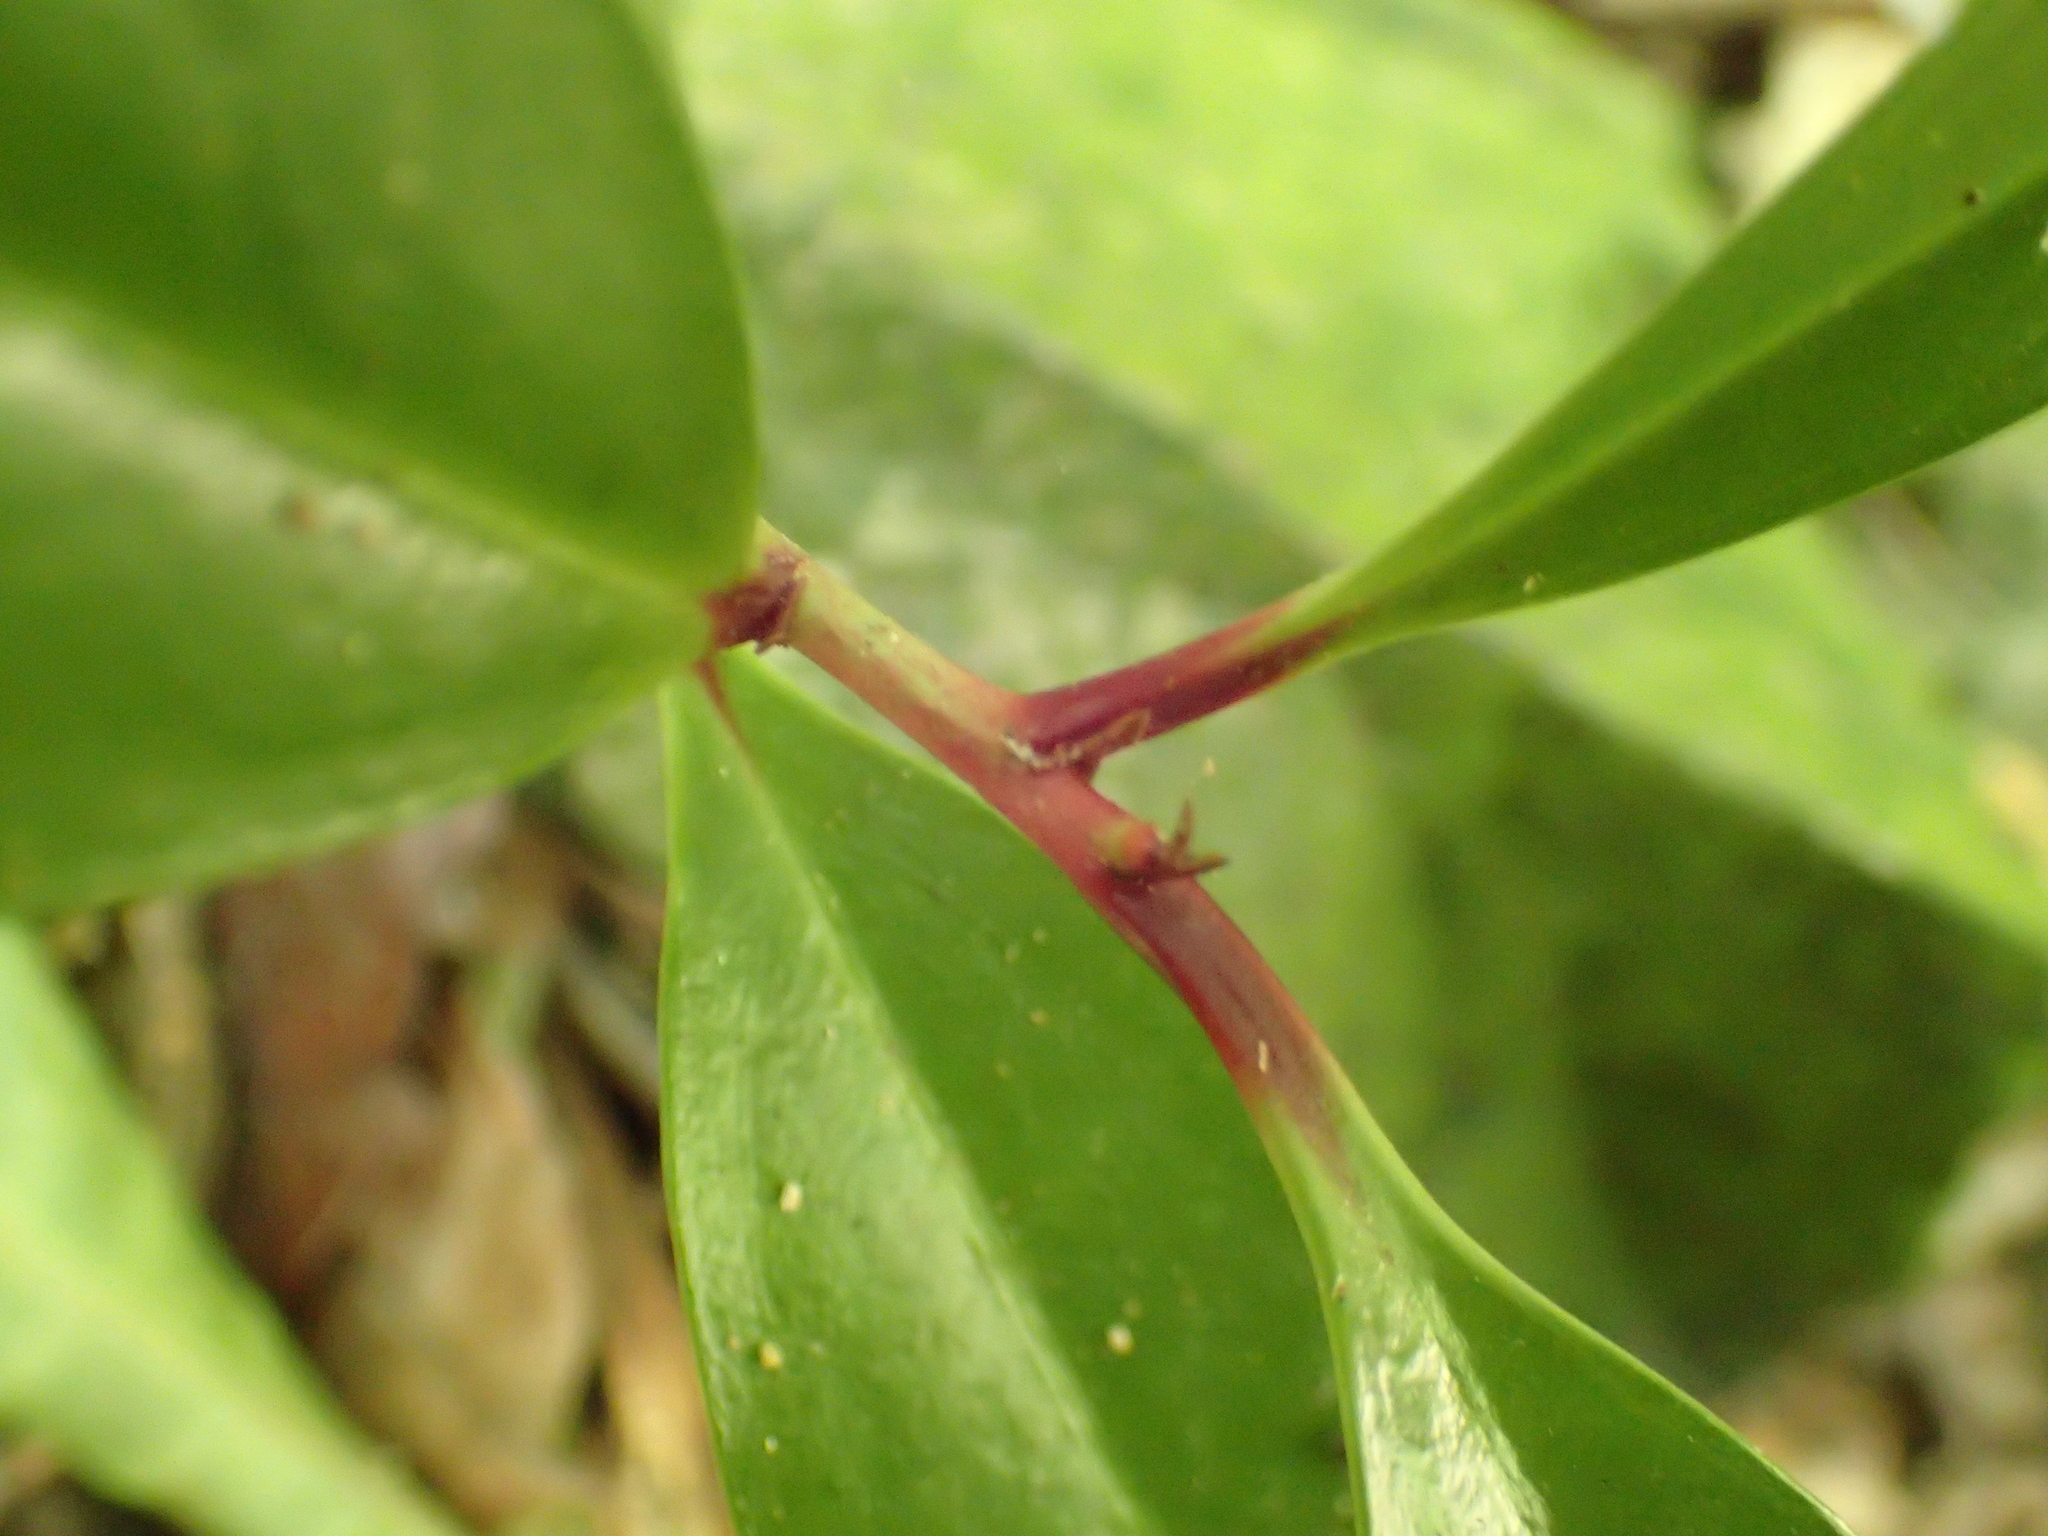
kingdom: Plantae
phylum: Tracheophyta
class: Magnoliopsida
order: Cucurbitales
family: Corynocarpaceae
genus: Corynocarpus
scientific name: Corynocarpus laevigatus
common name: New zealand laurel
